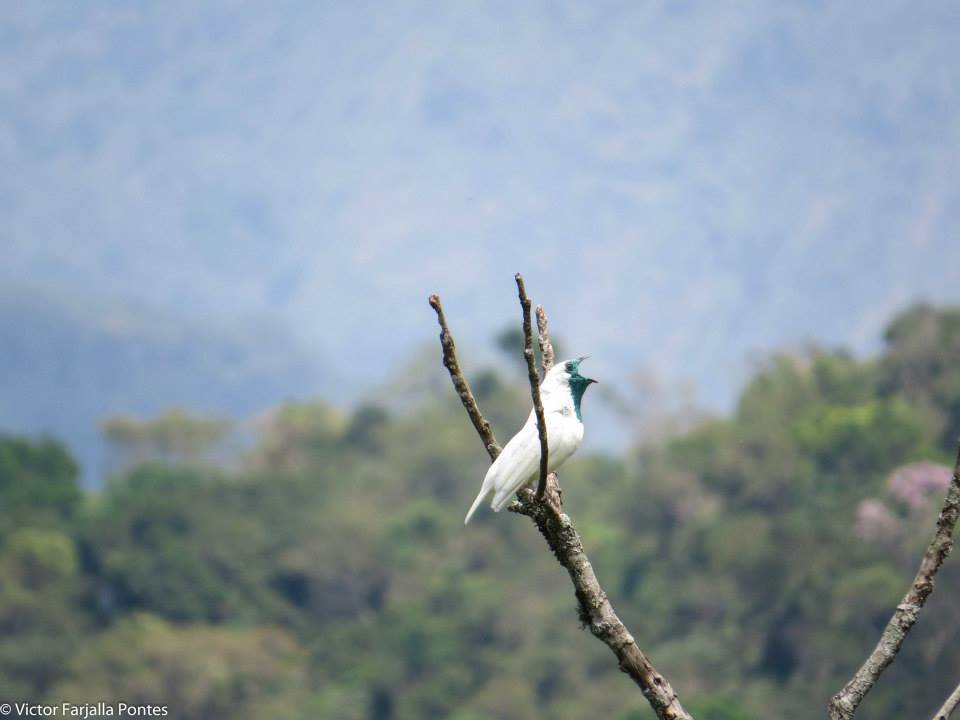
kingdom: Animalia
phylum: Chordata
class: Aves
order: Passeriformes
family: Cotingidae
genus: Procnias
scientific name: Procnias nudicollis
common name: Bare-throated bellbird
